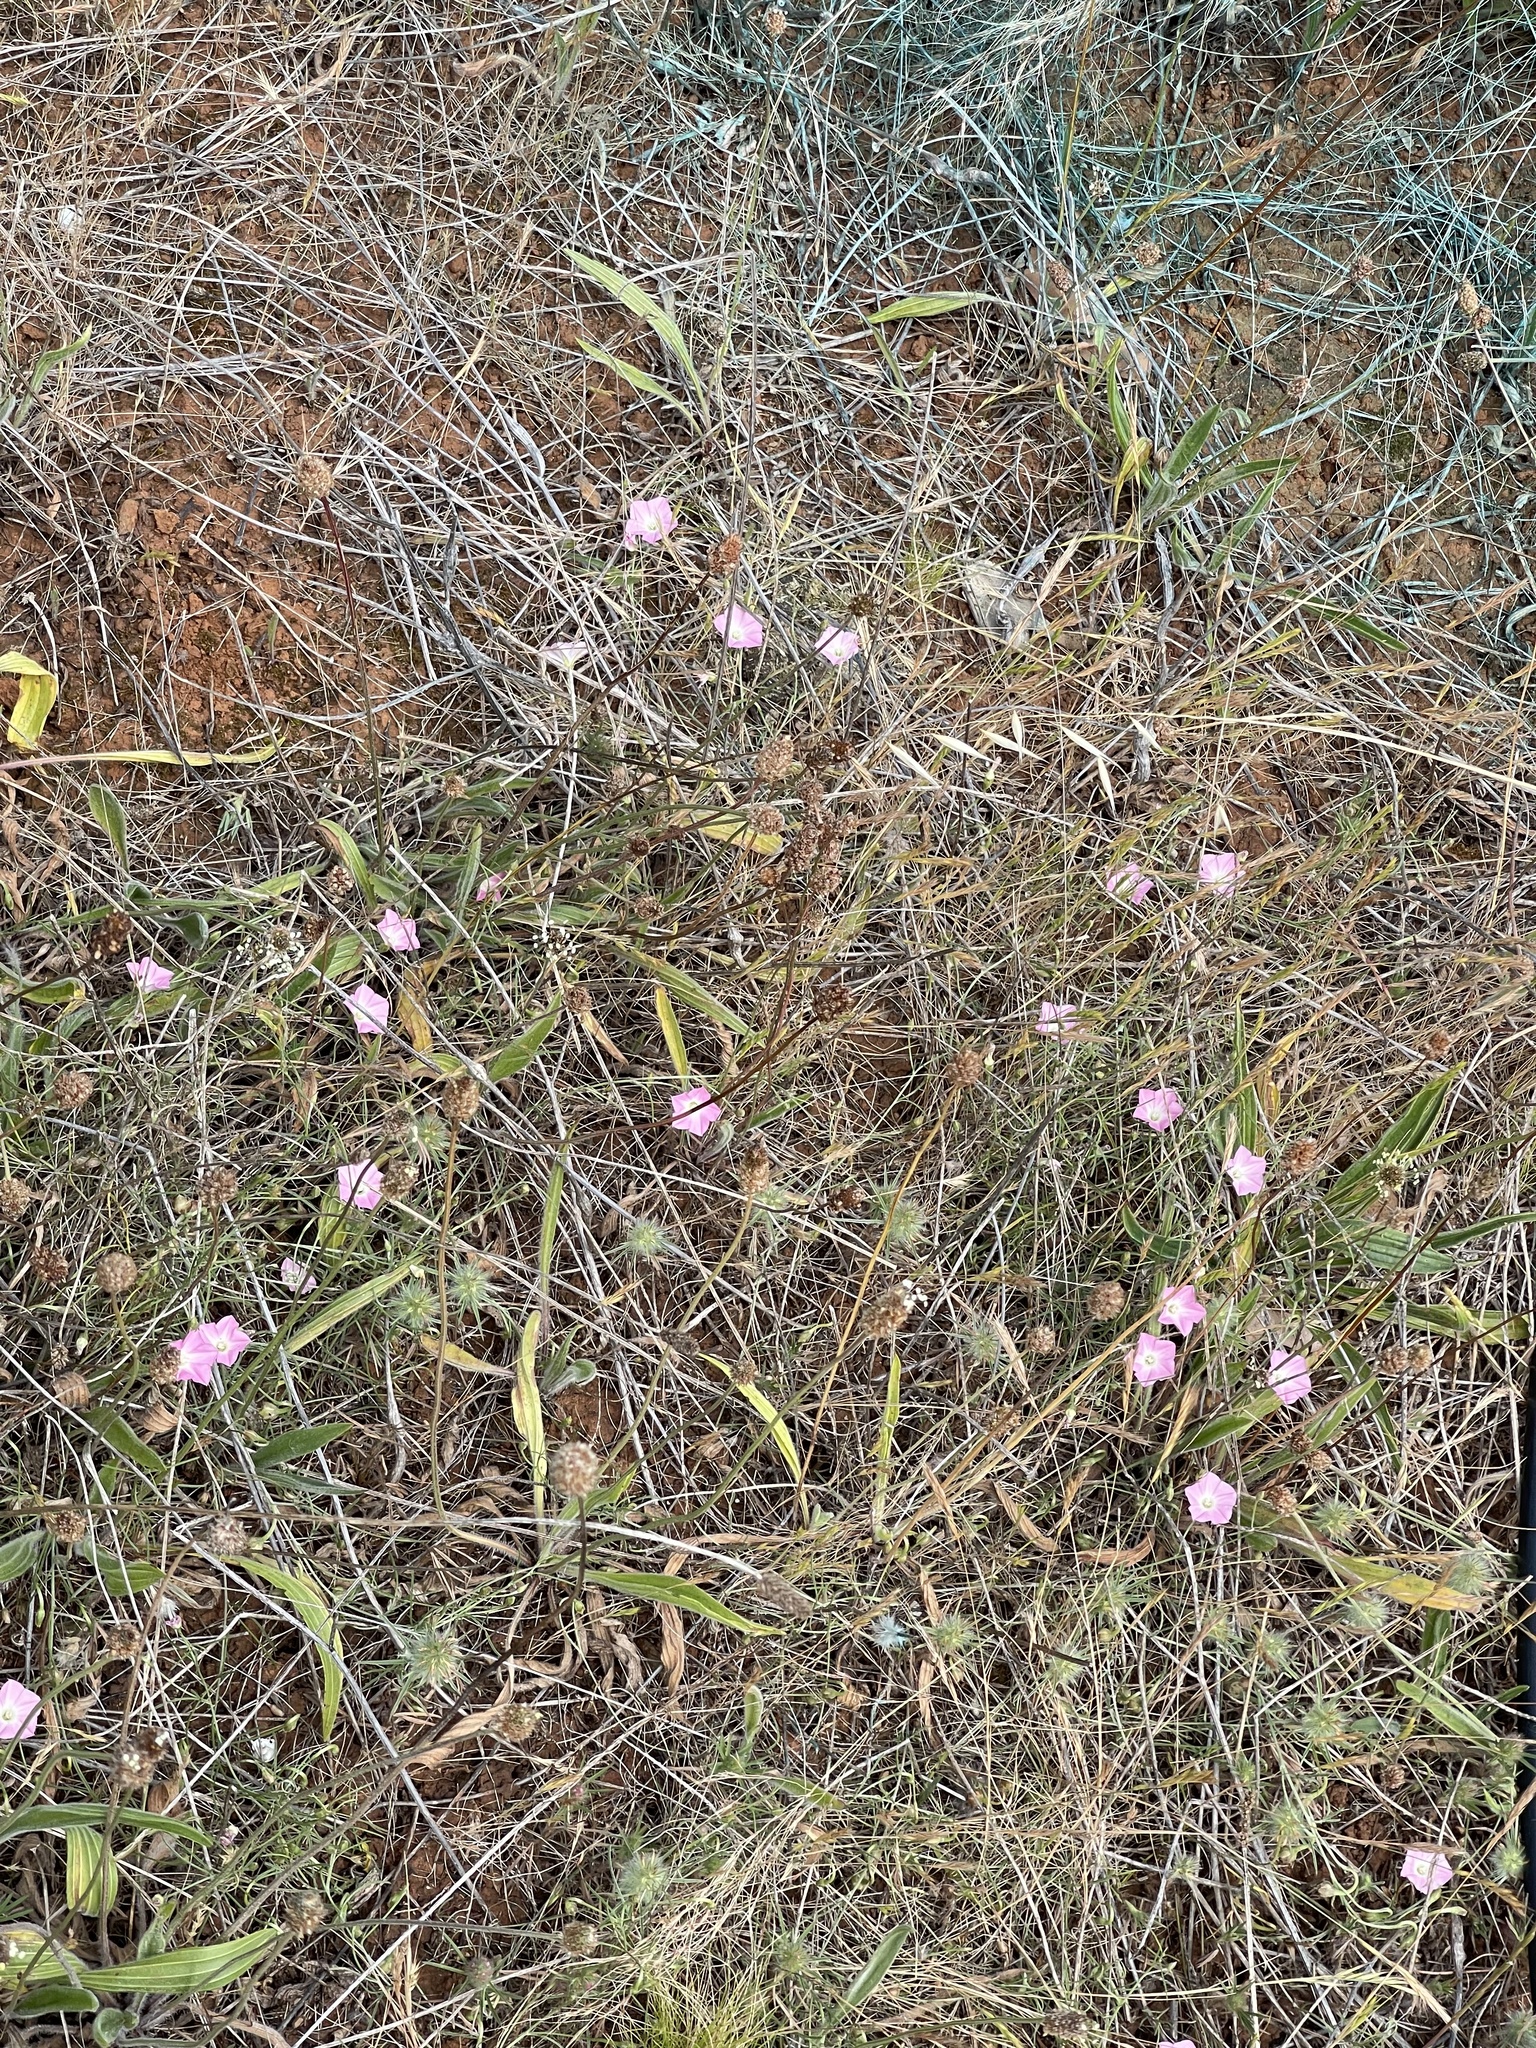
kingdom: Plantae
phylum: Tracheophyta
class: Magnoliopsida
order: Solanales
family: Convolvulaceae
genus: Convolvulus
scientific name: Convolvulus angustissimus
